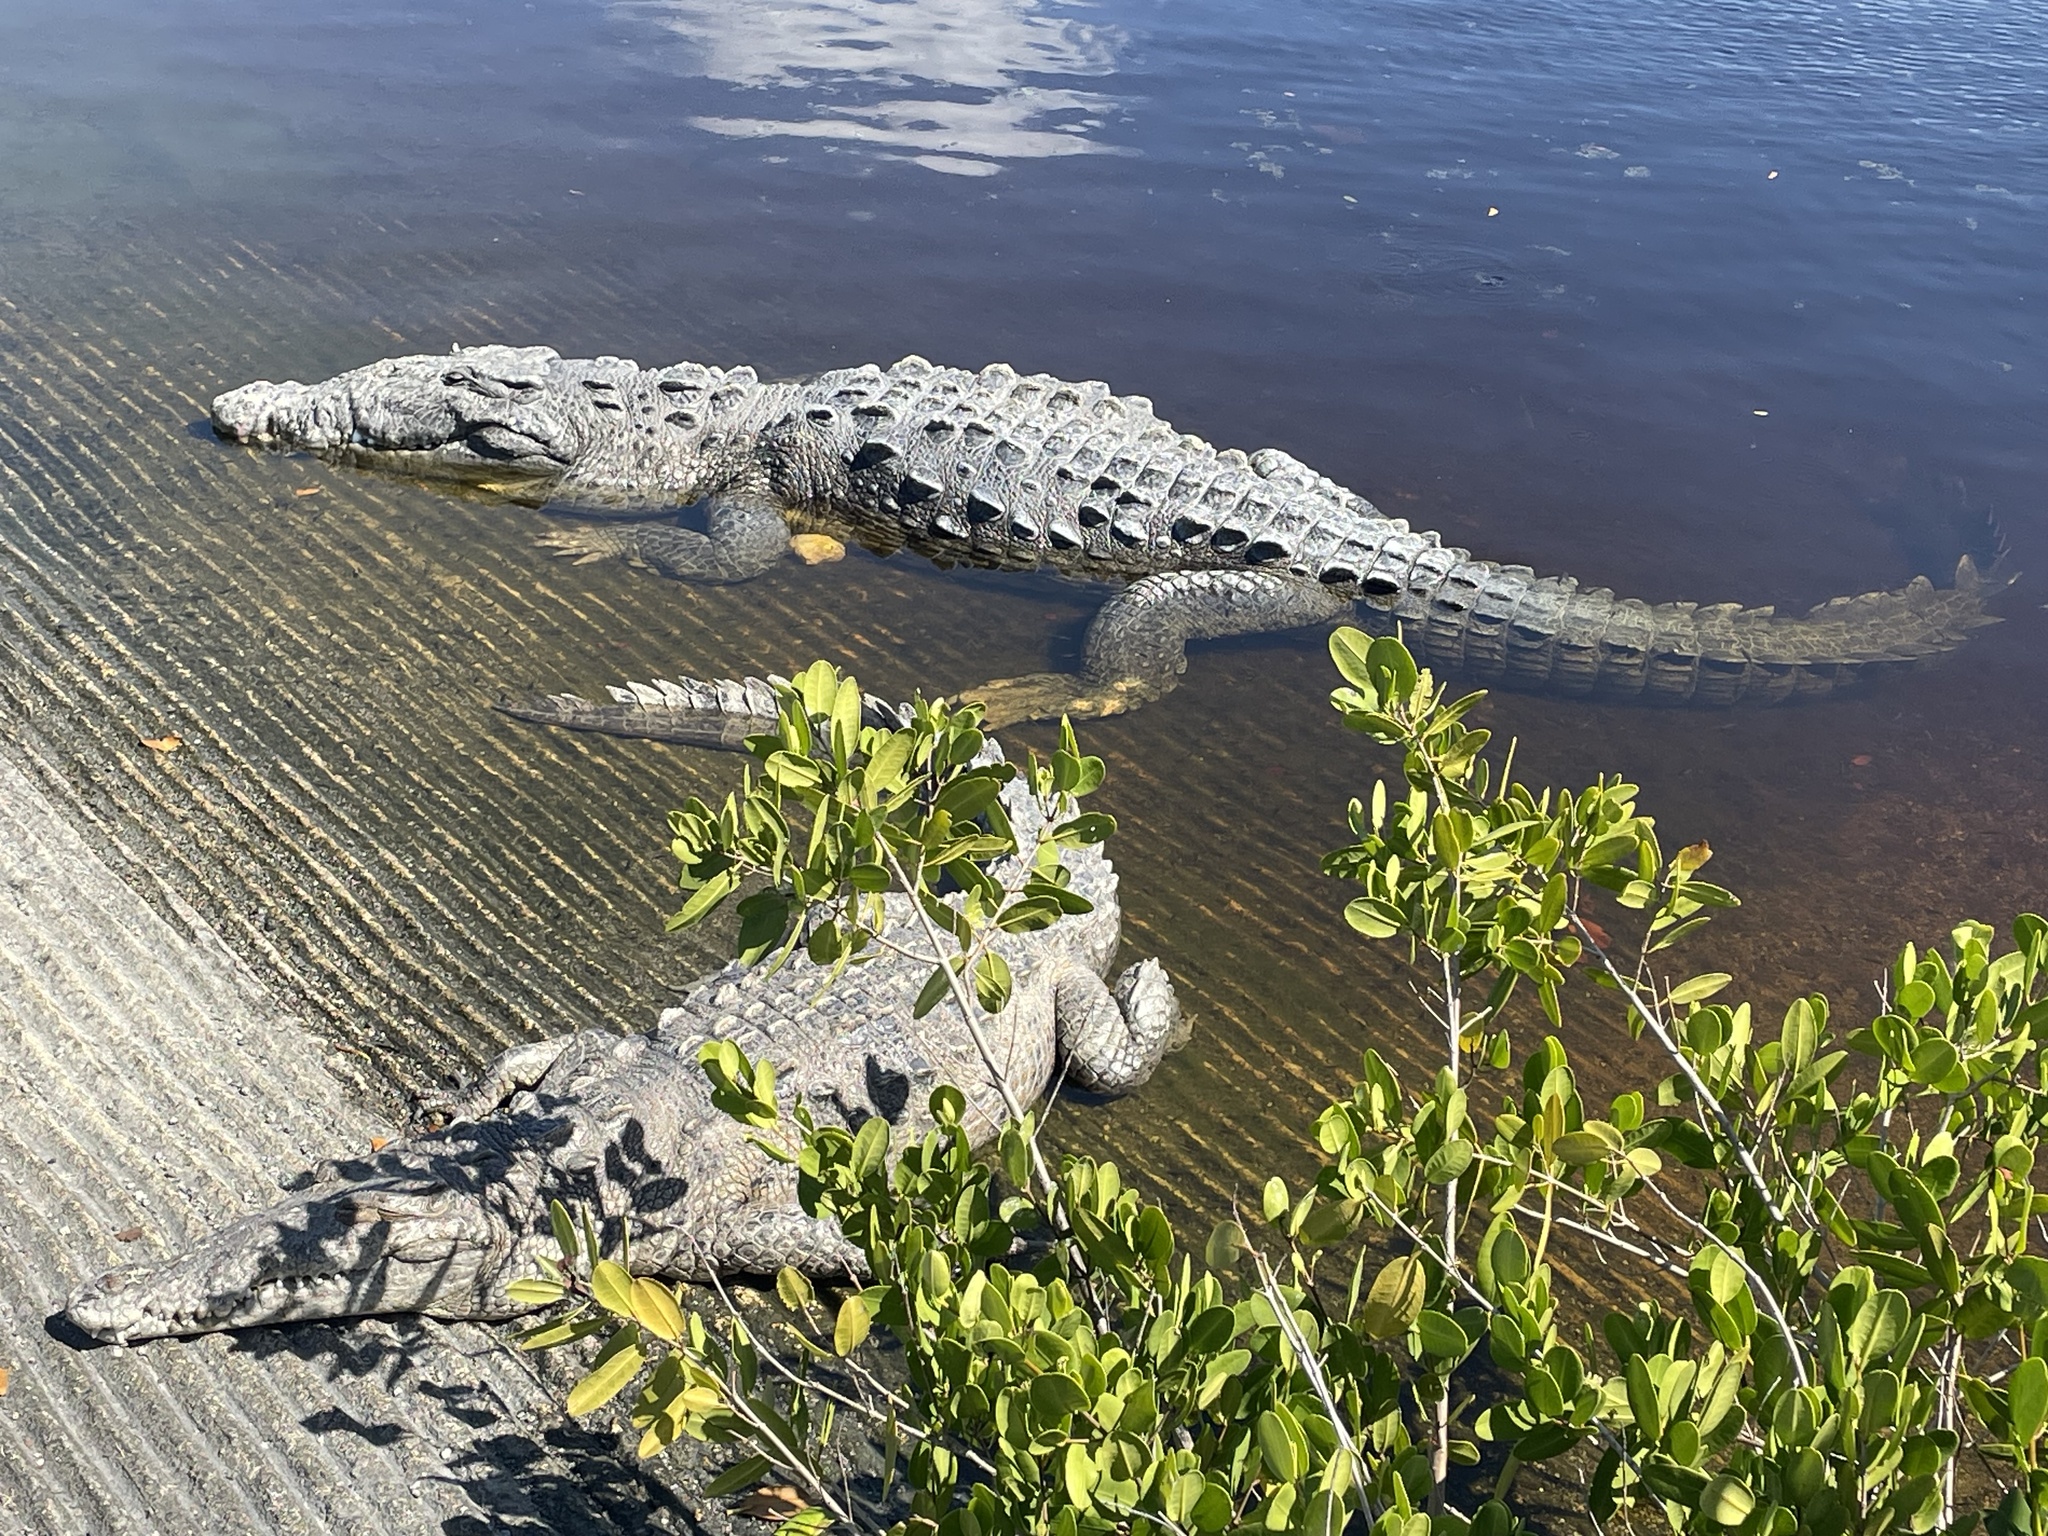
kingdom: Animalia
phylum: Chordata
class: Crocodylia
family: Crocodylidae
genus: Crocodylus
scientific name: Crocodylus acutus
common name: American crocodile
